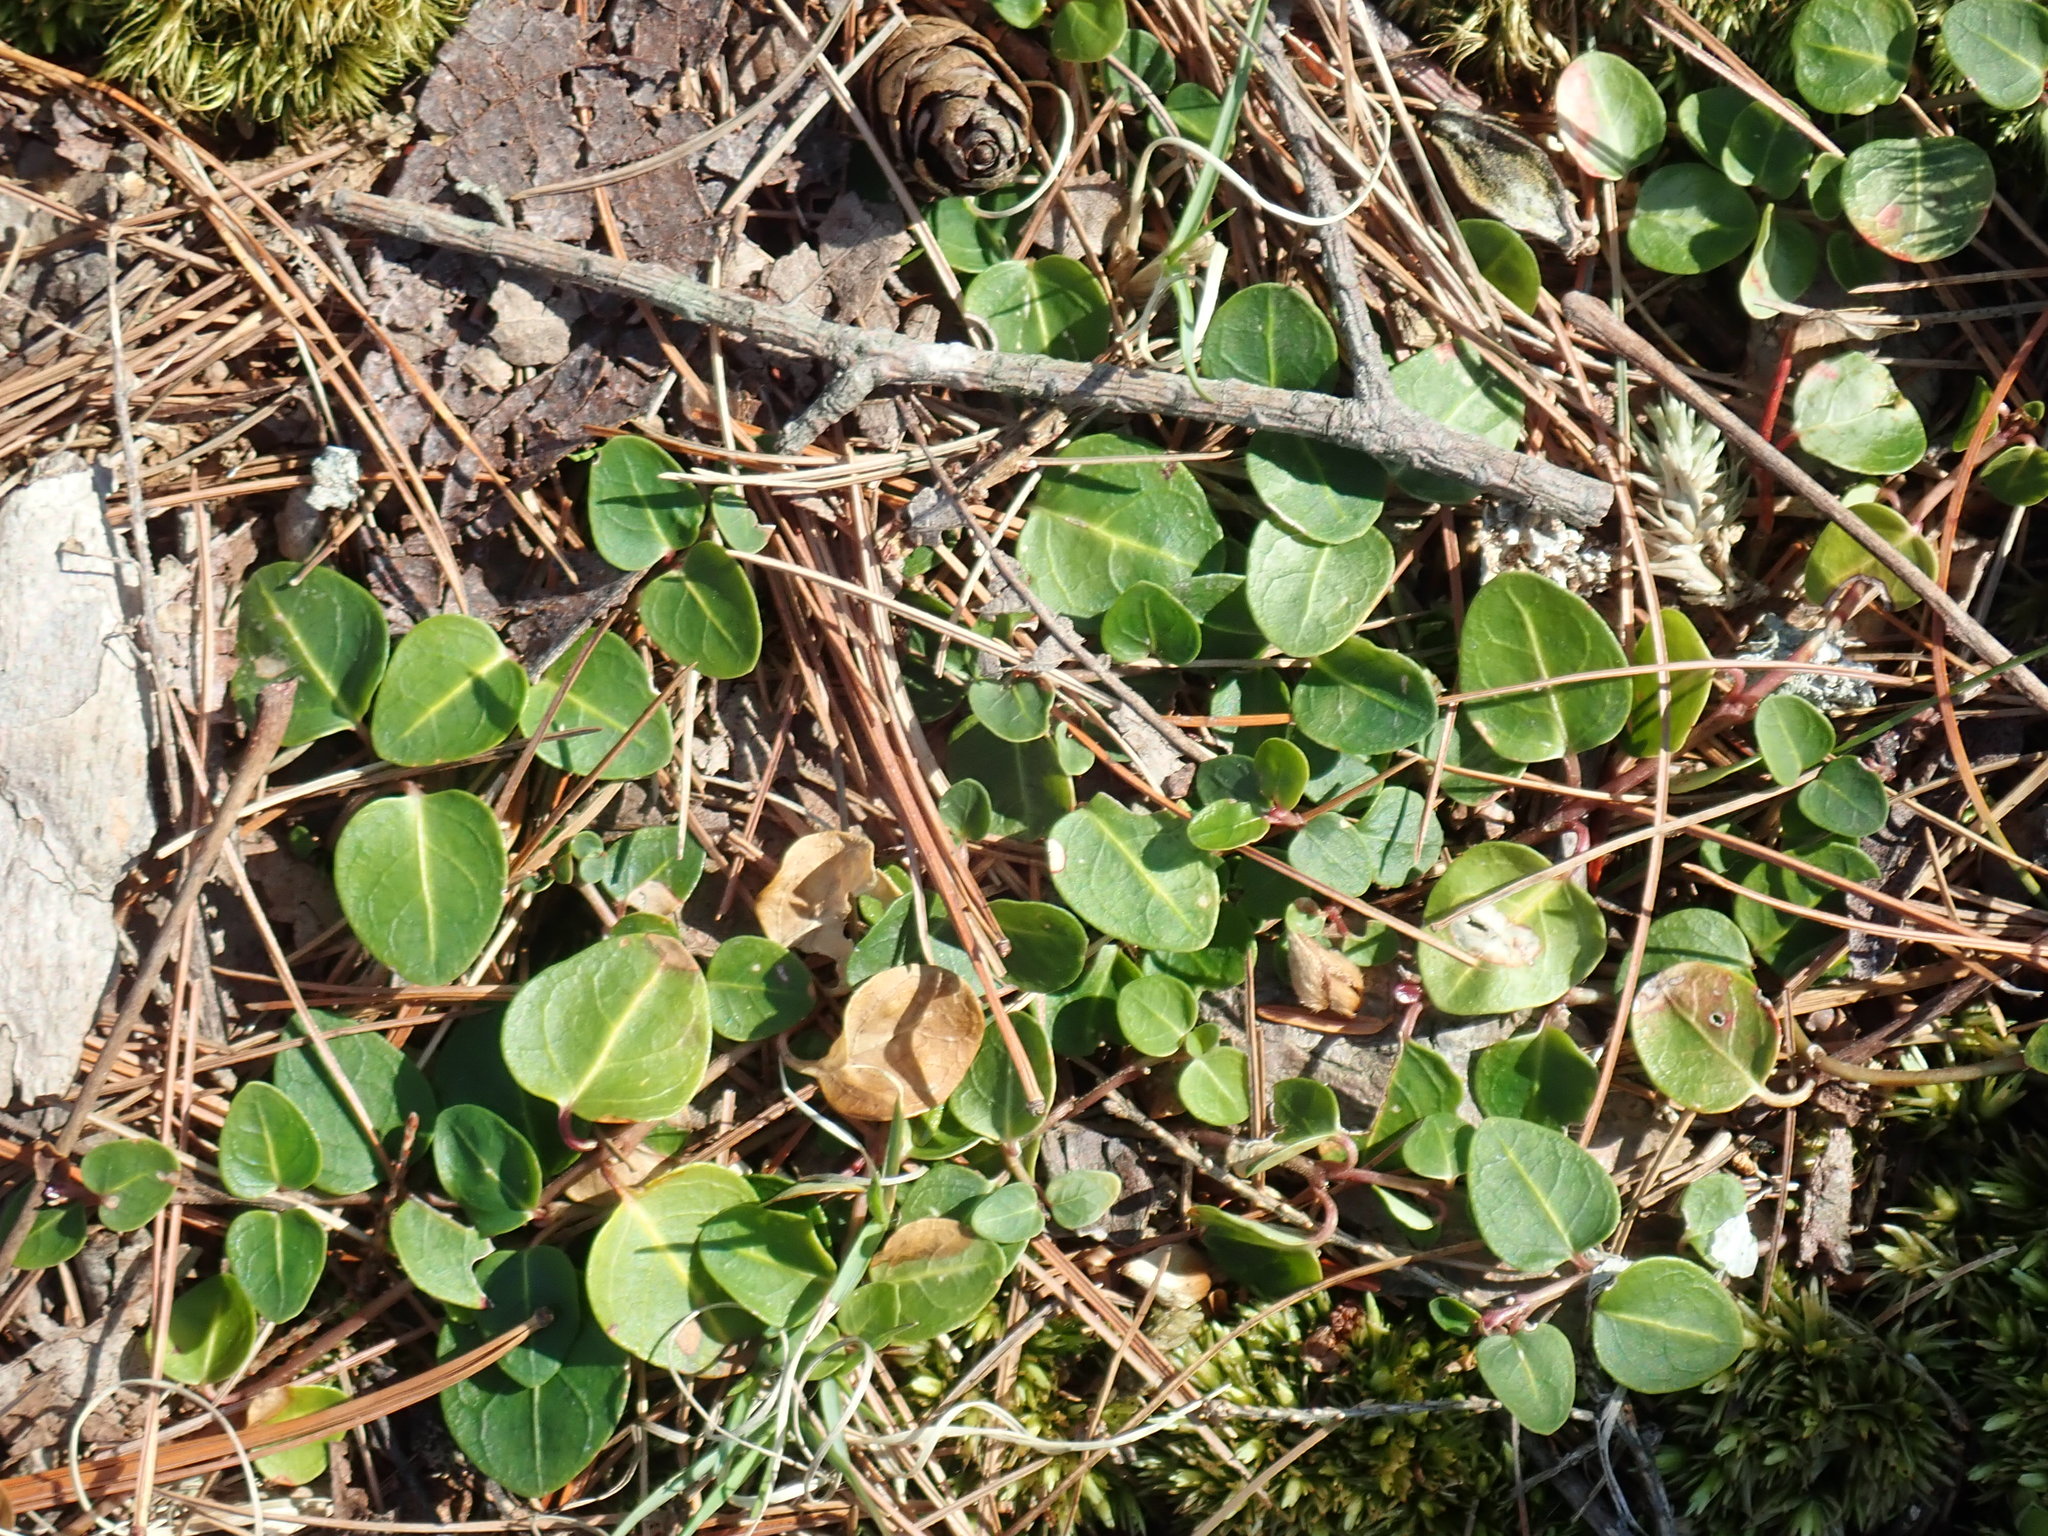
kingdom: Plantae
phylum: Tracheophyta
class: Magnoliopsida
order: Gentianales
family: Rubiaceae
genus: Mitchella
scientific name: Mitchella repens
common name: Partridge-berry
